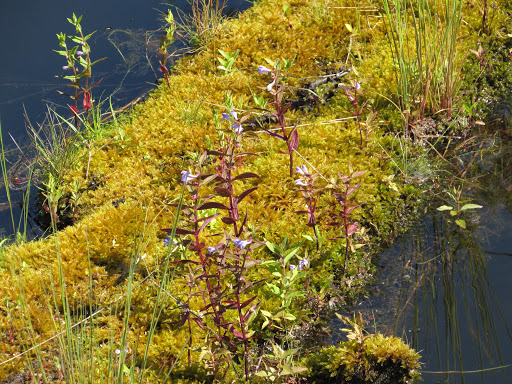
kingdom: Plantae
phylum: Tracheophyta
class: Magnoliopsida
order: Lamiales
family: Lamiaceae
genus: Scutellaria
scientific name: Scutellaria galericulata
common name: Skullcap
